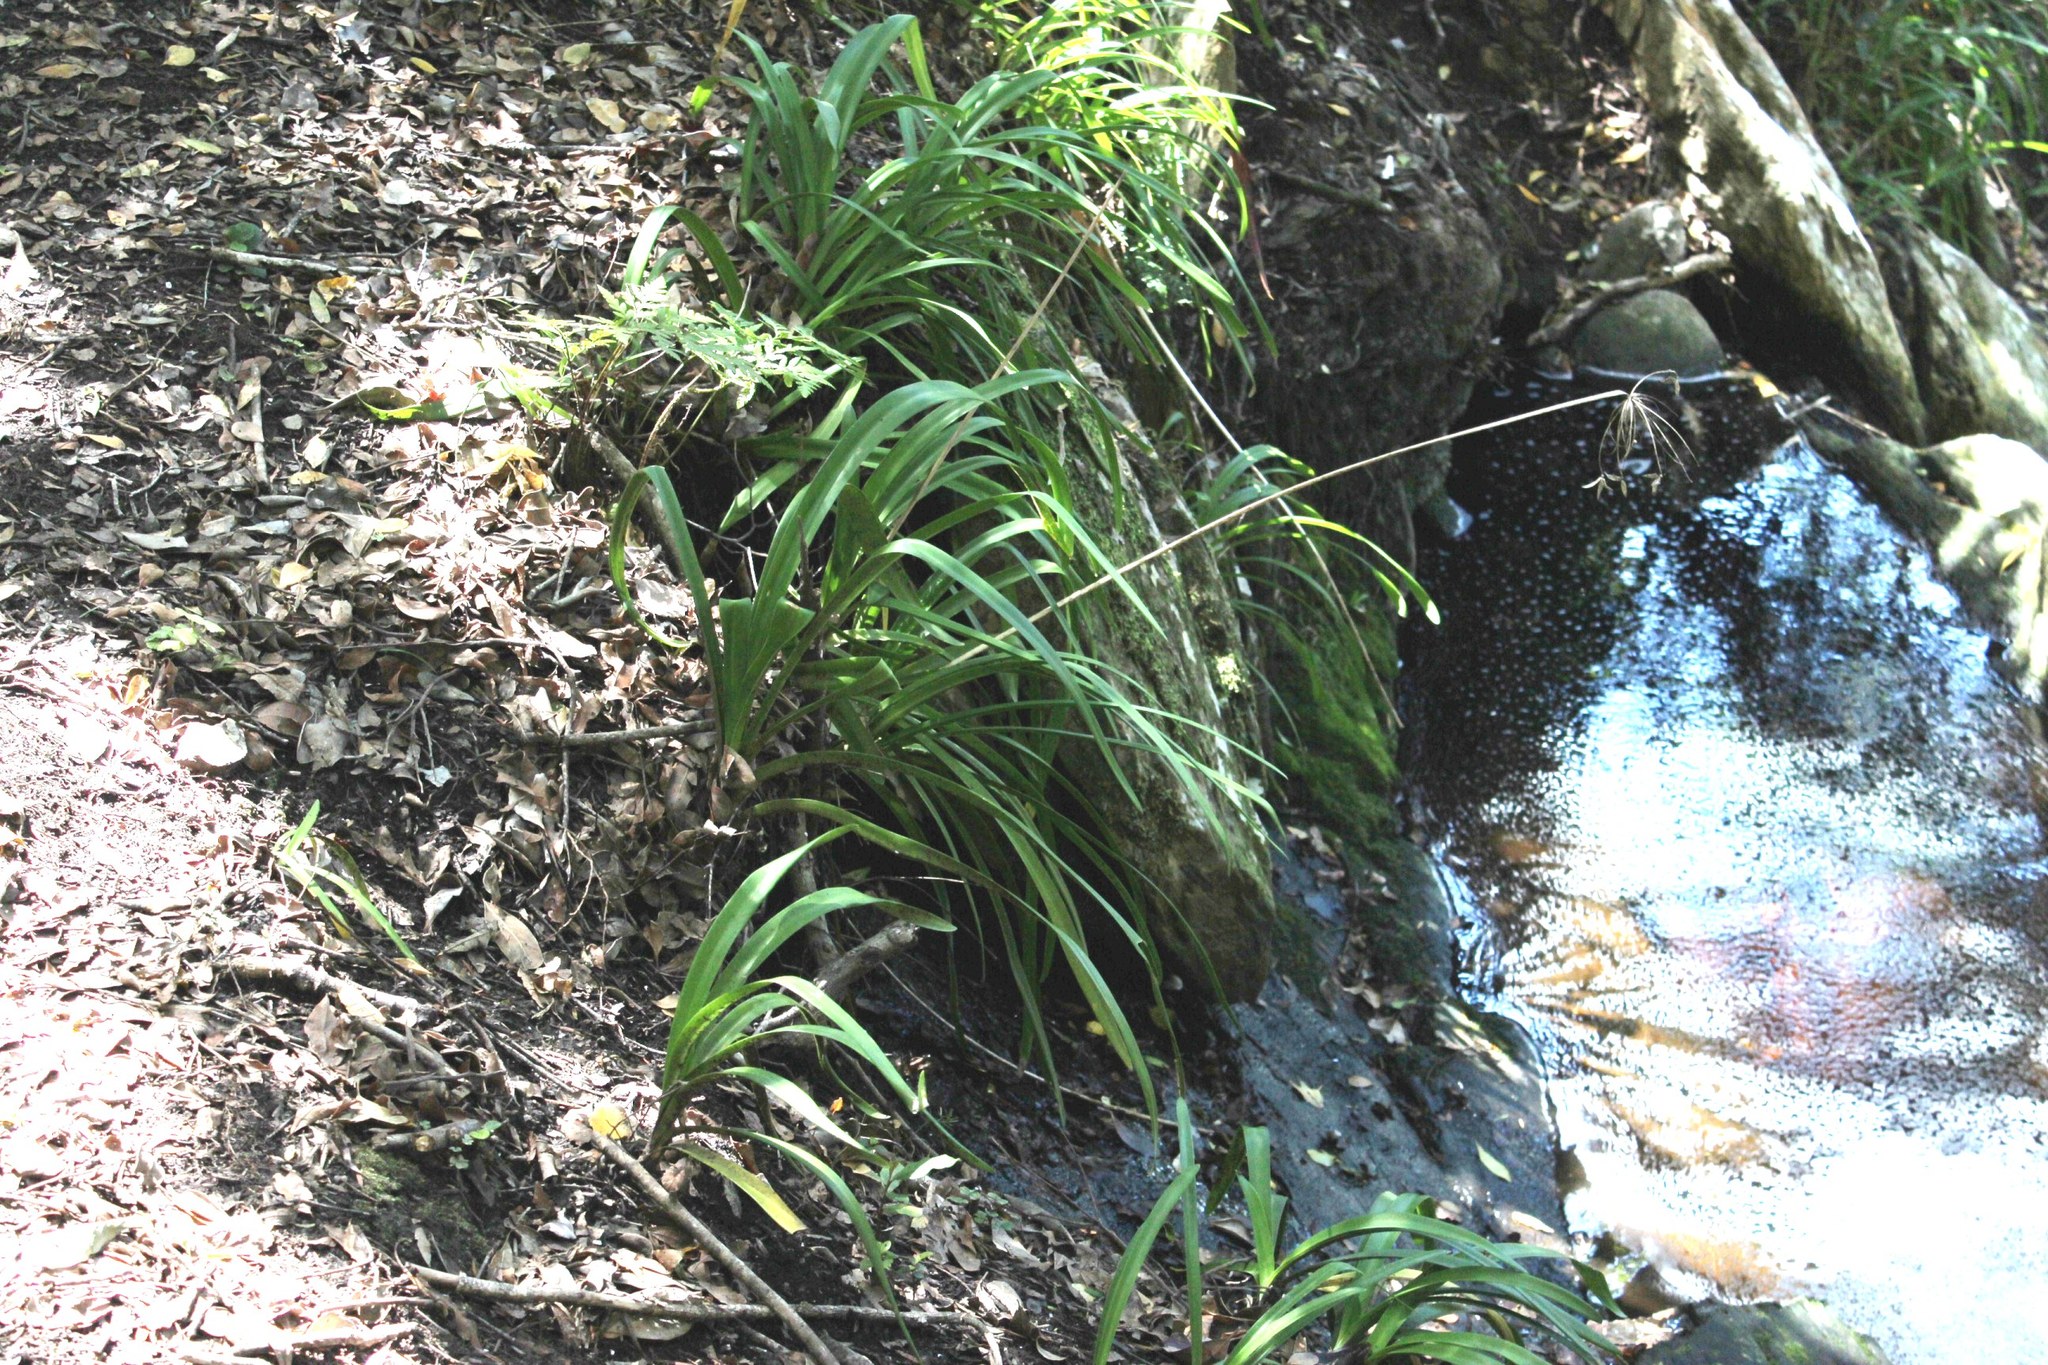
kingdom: Plantae
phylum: Tracheophyta
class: Liliopsida
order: Asparagales
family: Amaryllidaceae
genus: Agapanthus
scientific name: Agapanthus praecox
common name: African-lily
